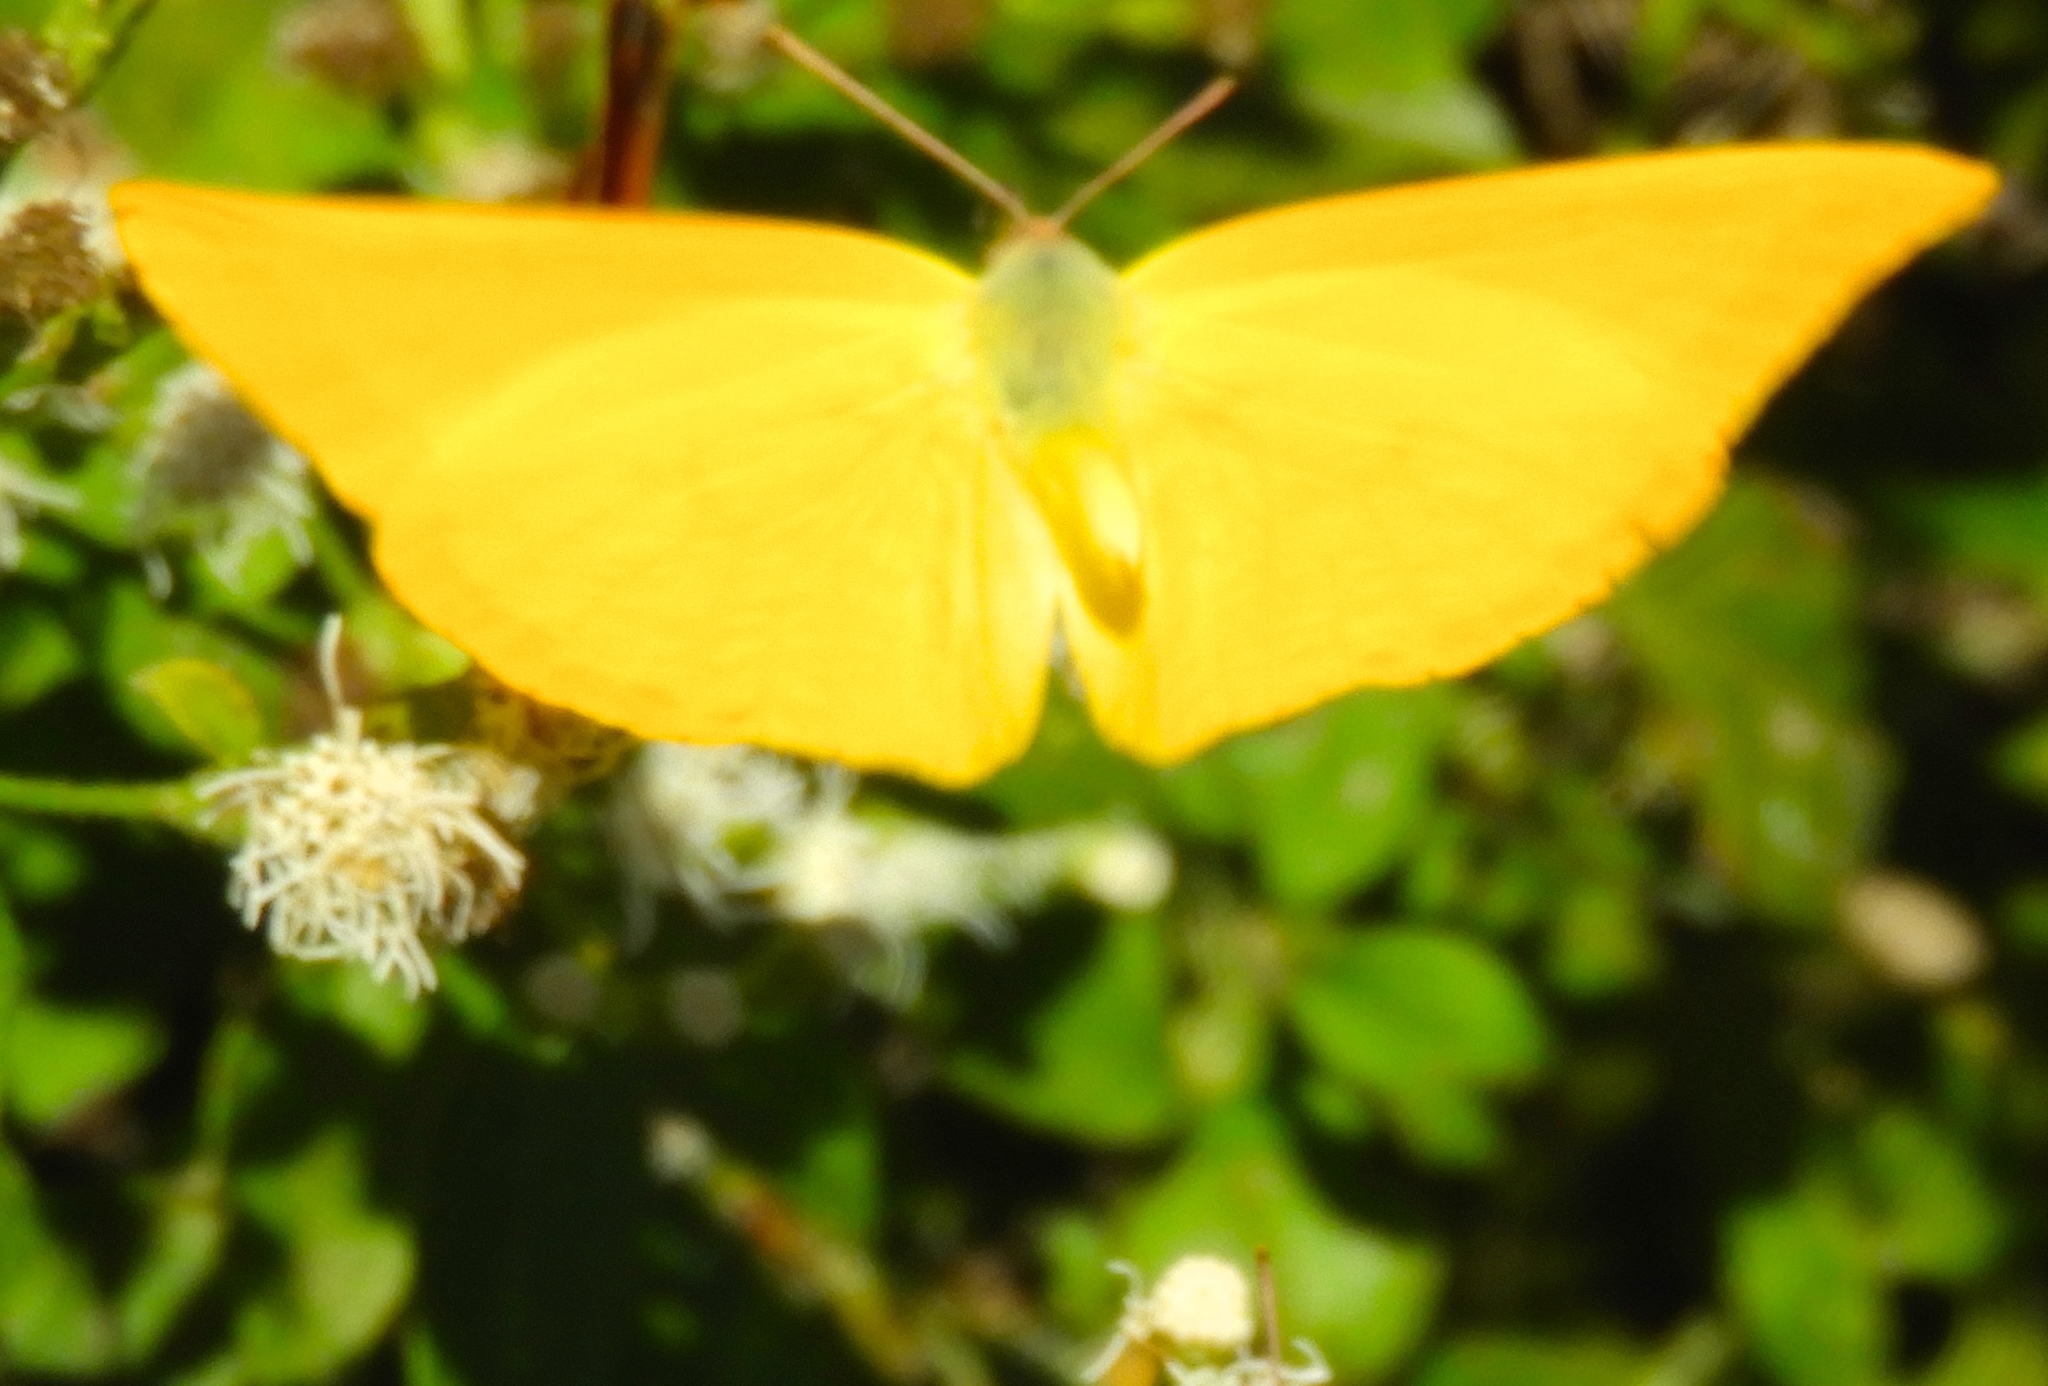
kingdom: Animalia
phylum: Arthropoda
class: Insecta
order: Lepidoptera
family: Pieridae
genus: Phoebis
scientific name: Phoebis agarithe
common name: Large orange sulphur
